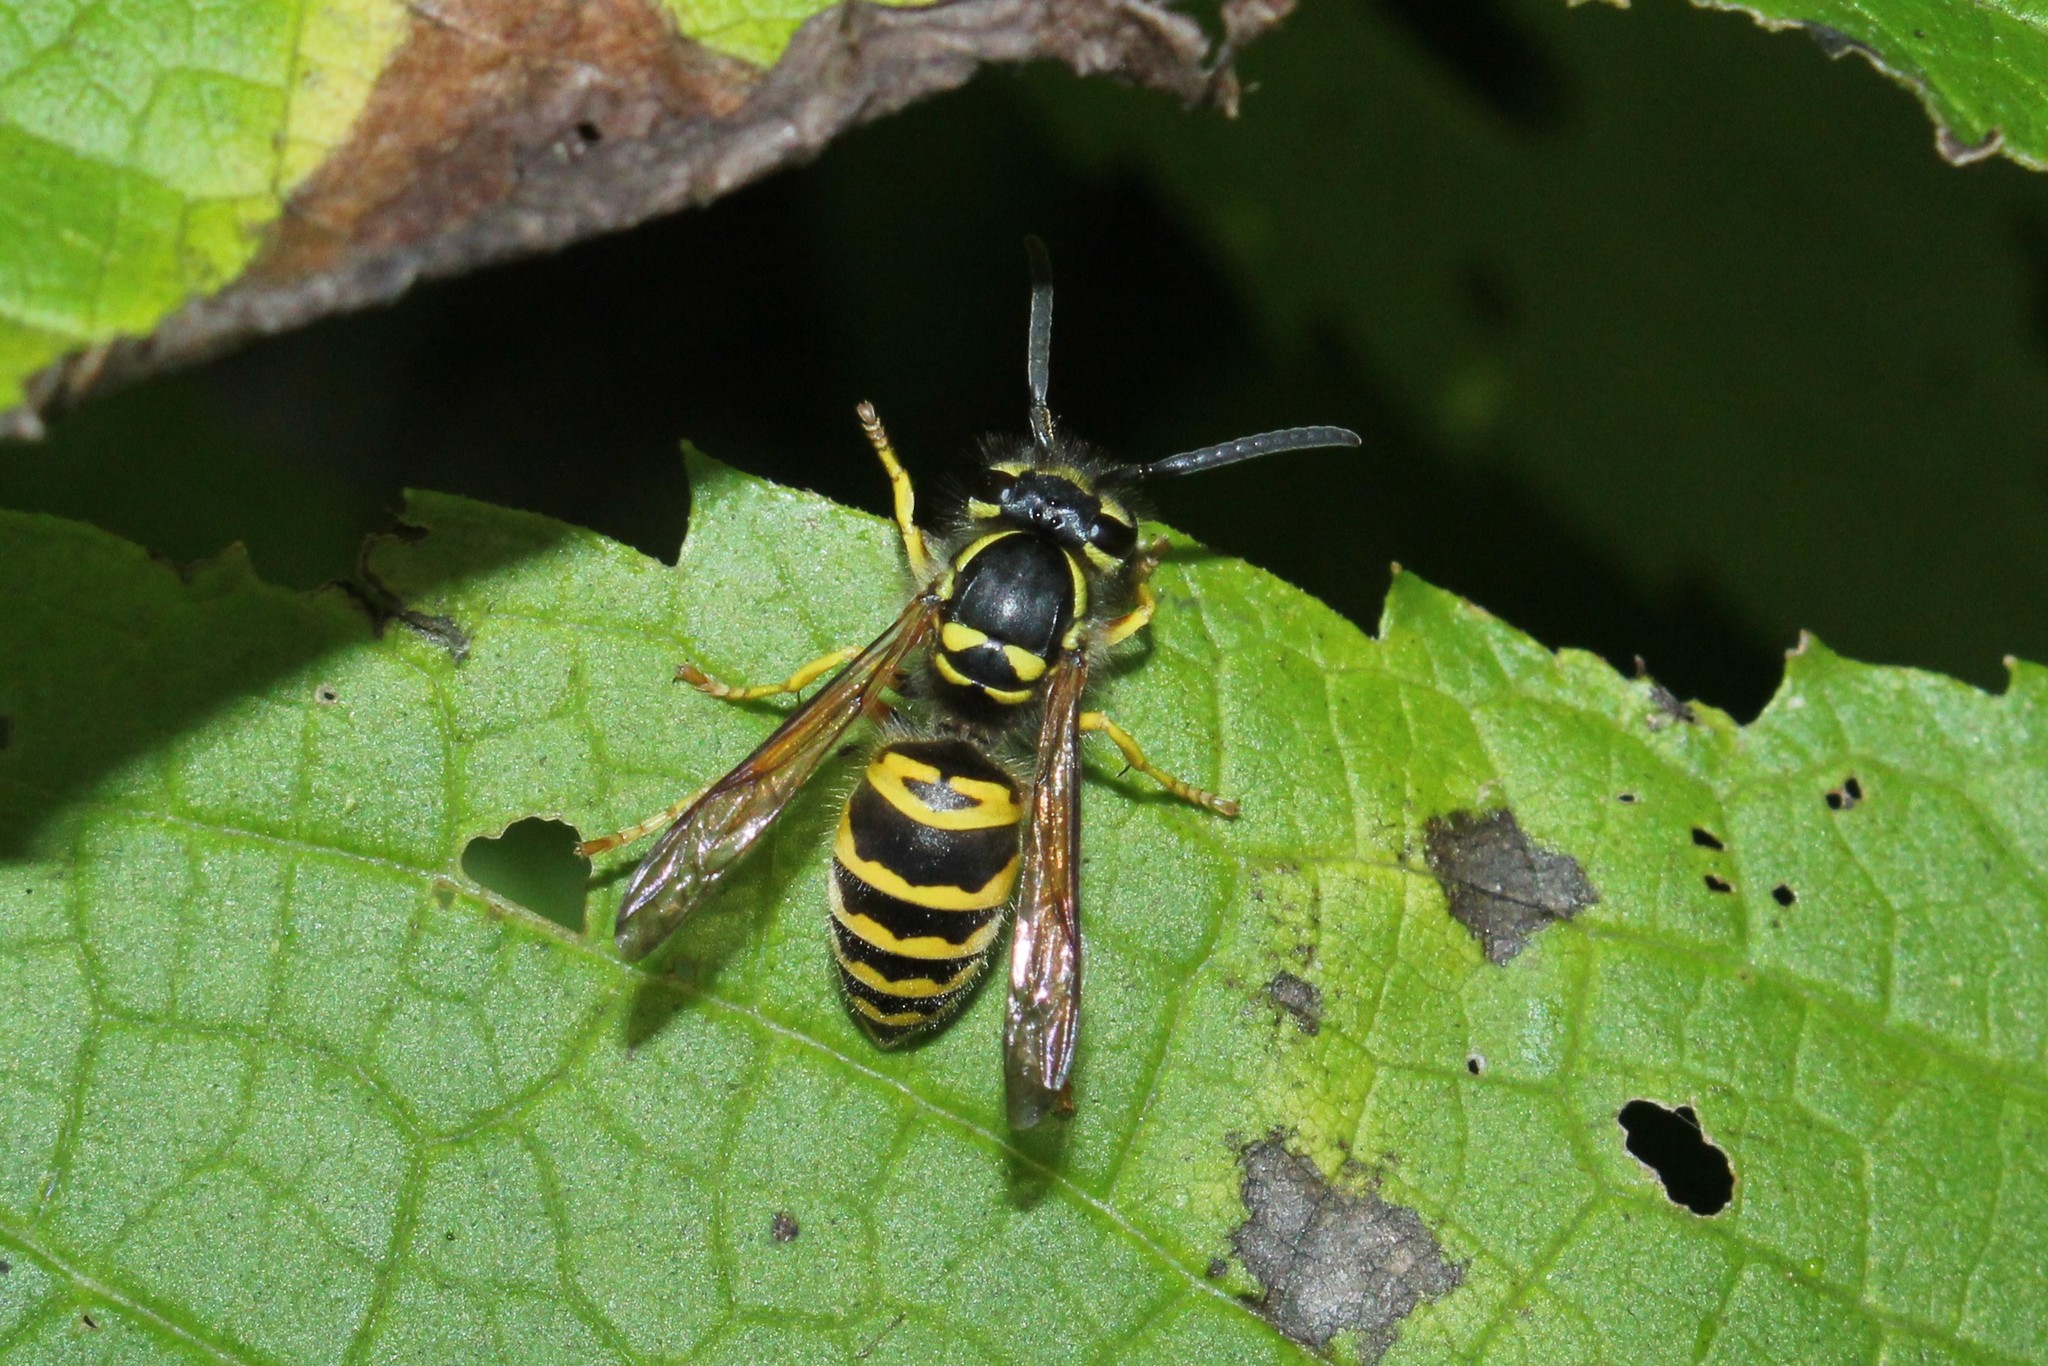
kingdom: Animalia
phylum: Arthropoda
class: Insecta
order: Hymenoptera
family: Vespidae
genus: Vespula
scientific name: Vespula maculifrons
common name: Eastern yellowjacket
